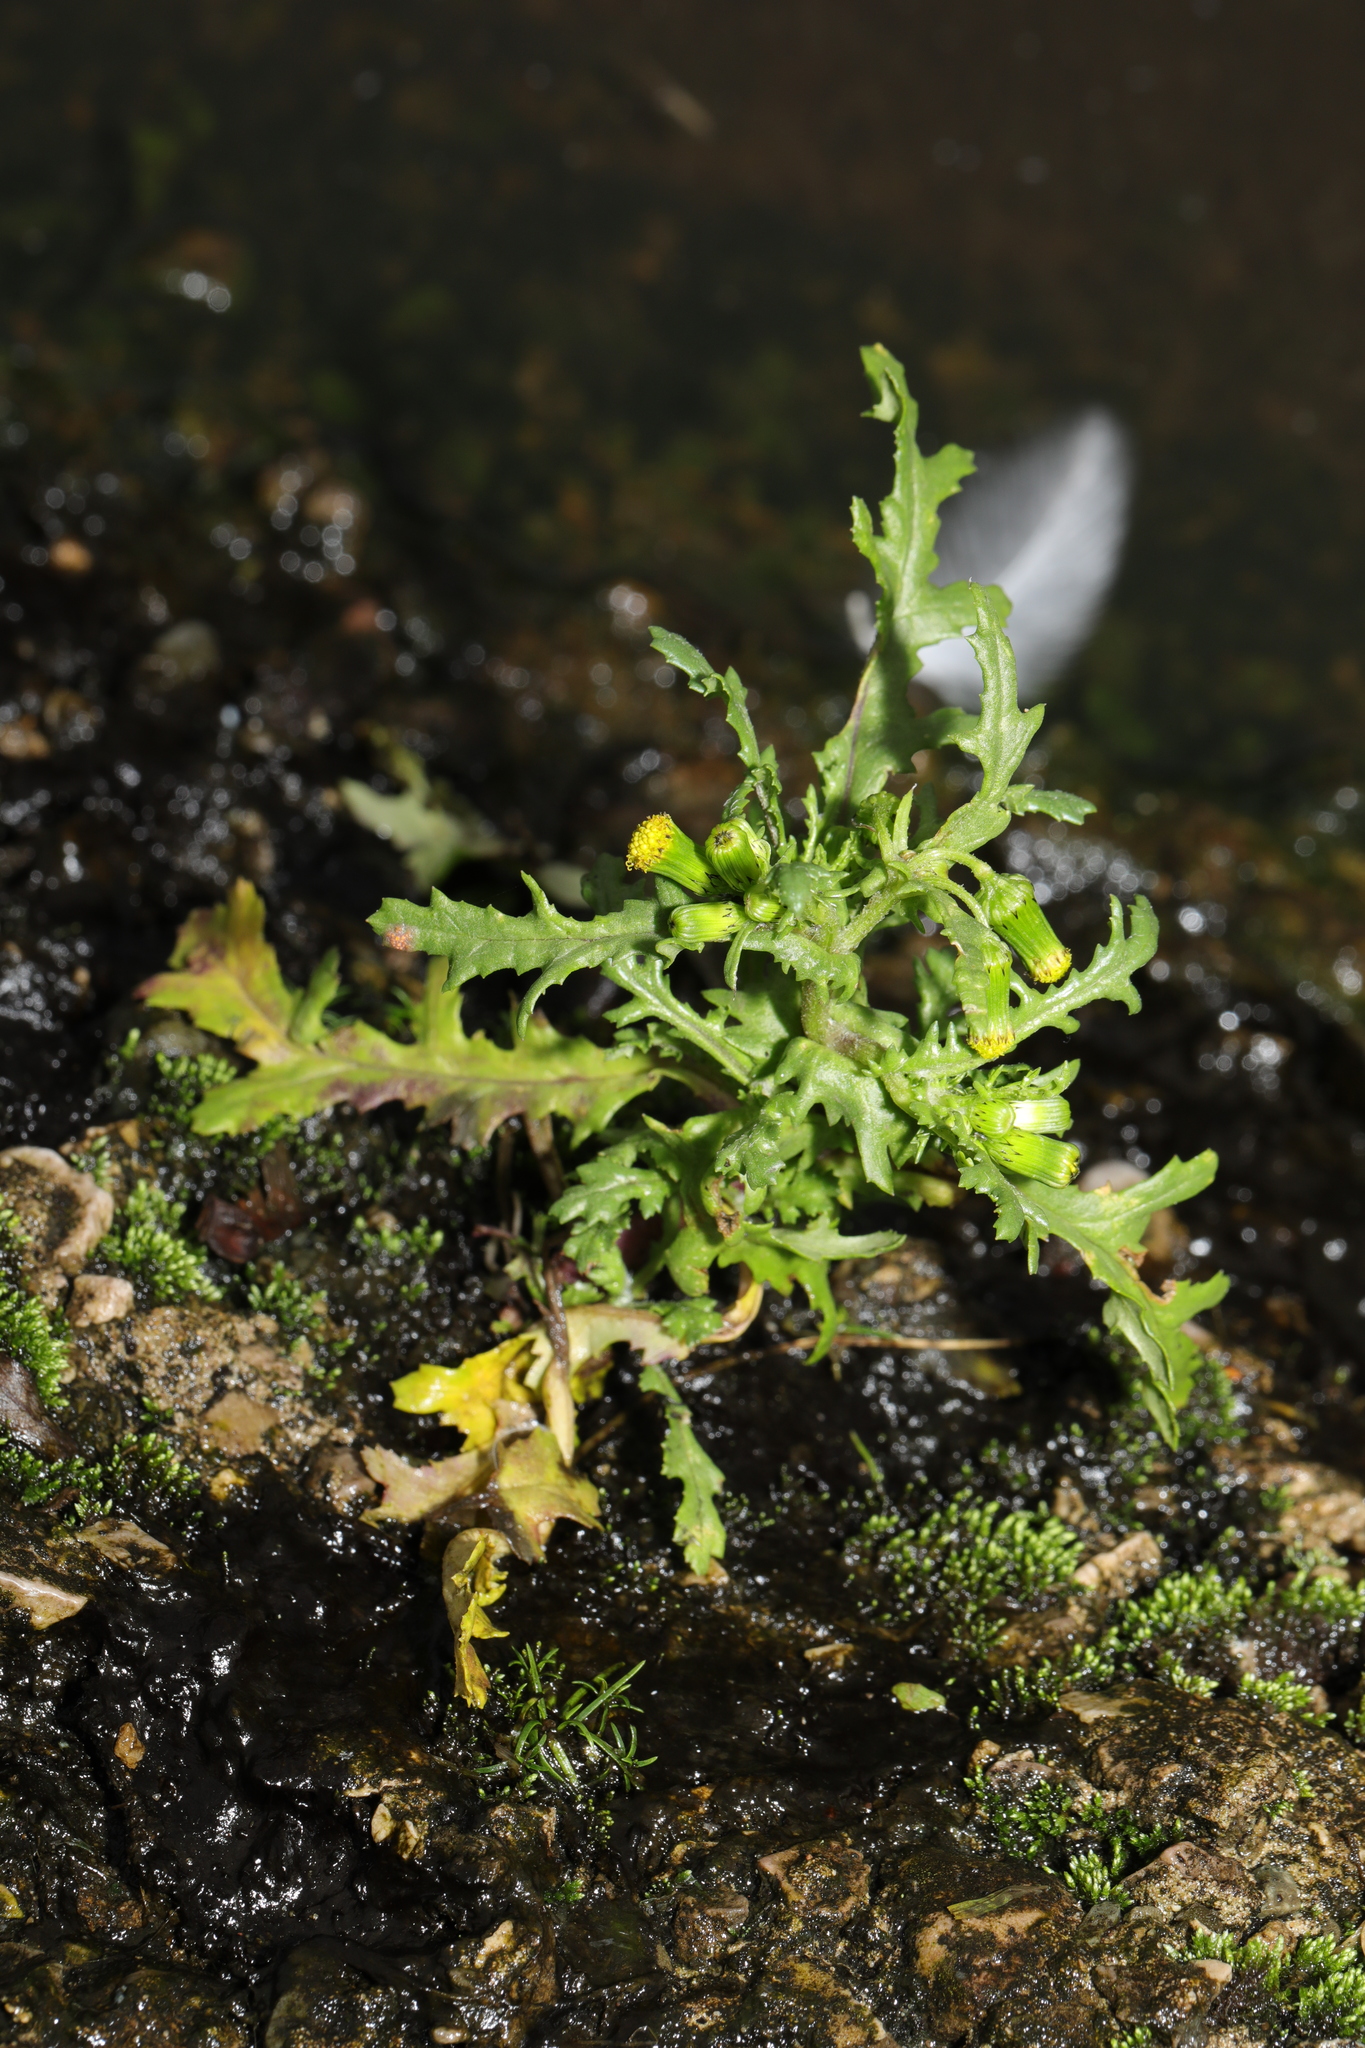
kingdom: Plantae
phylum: Tracheophyta
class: Magnoliopsida
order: Asterales
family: Asteraceae
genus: Senecio
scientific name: Senecio vulgaris
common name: Old-man-in-the-spring
